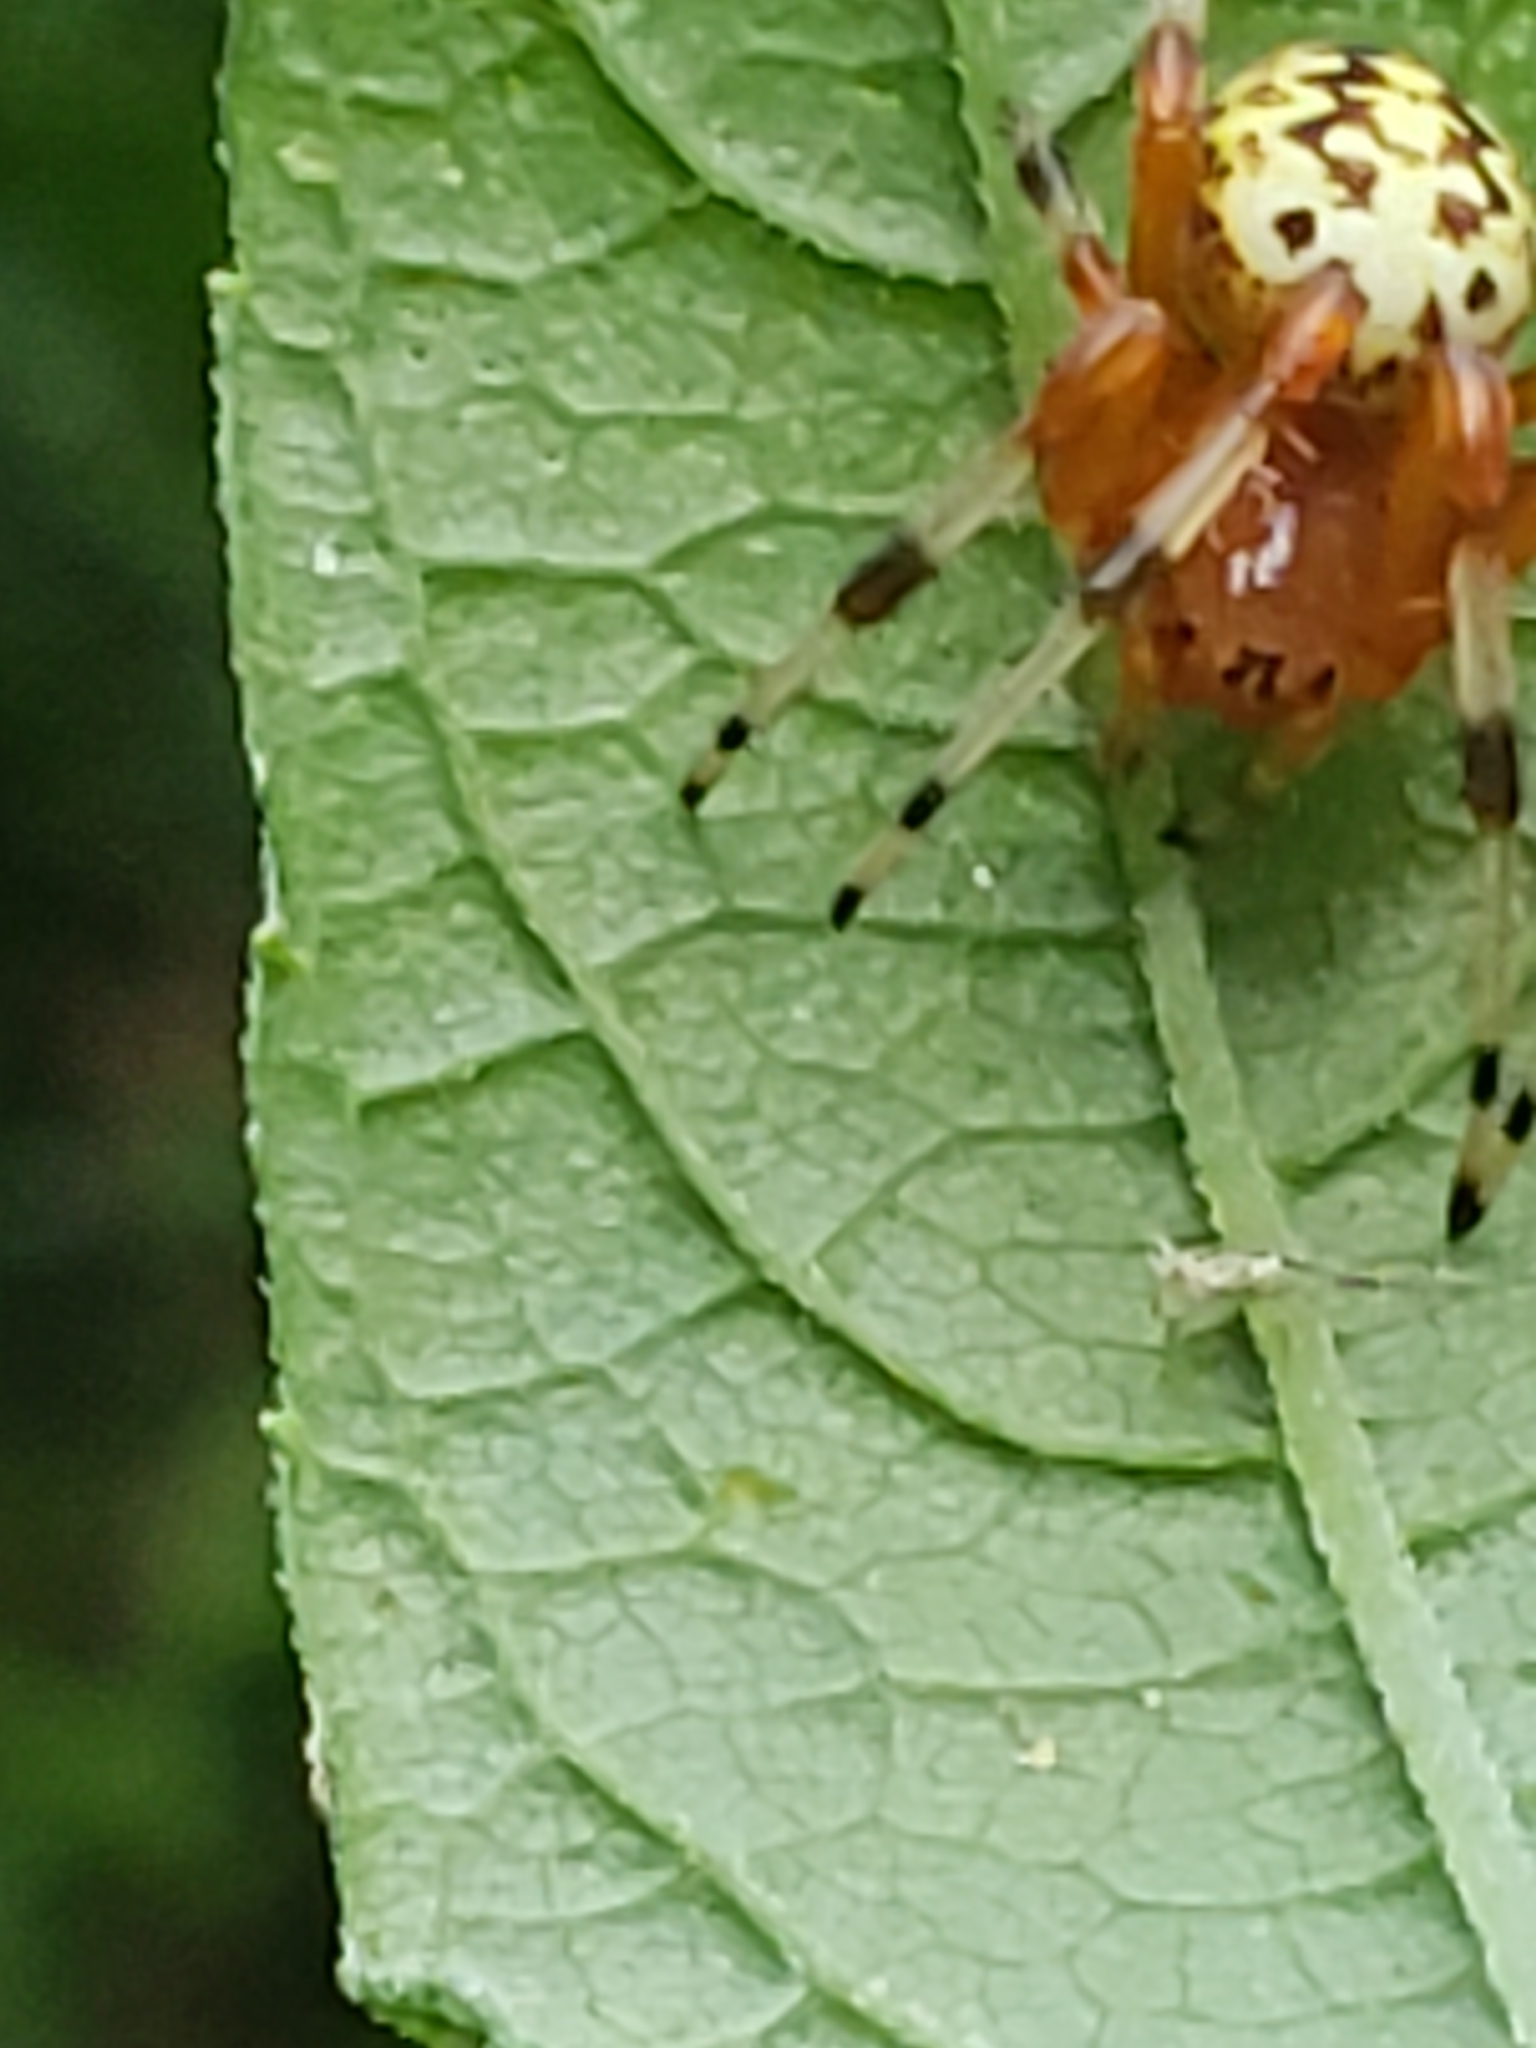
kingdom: Animalia
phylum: Arthropoda
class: Arachnida
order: Araneae
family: Araneidae
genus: Araneus
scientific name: Araneus marmoreus
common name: Marbled orbweaver
